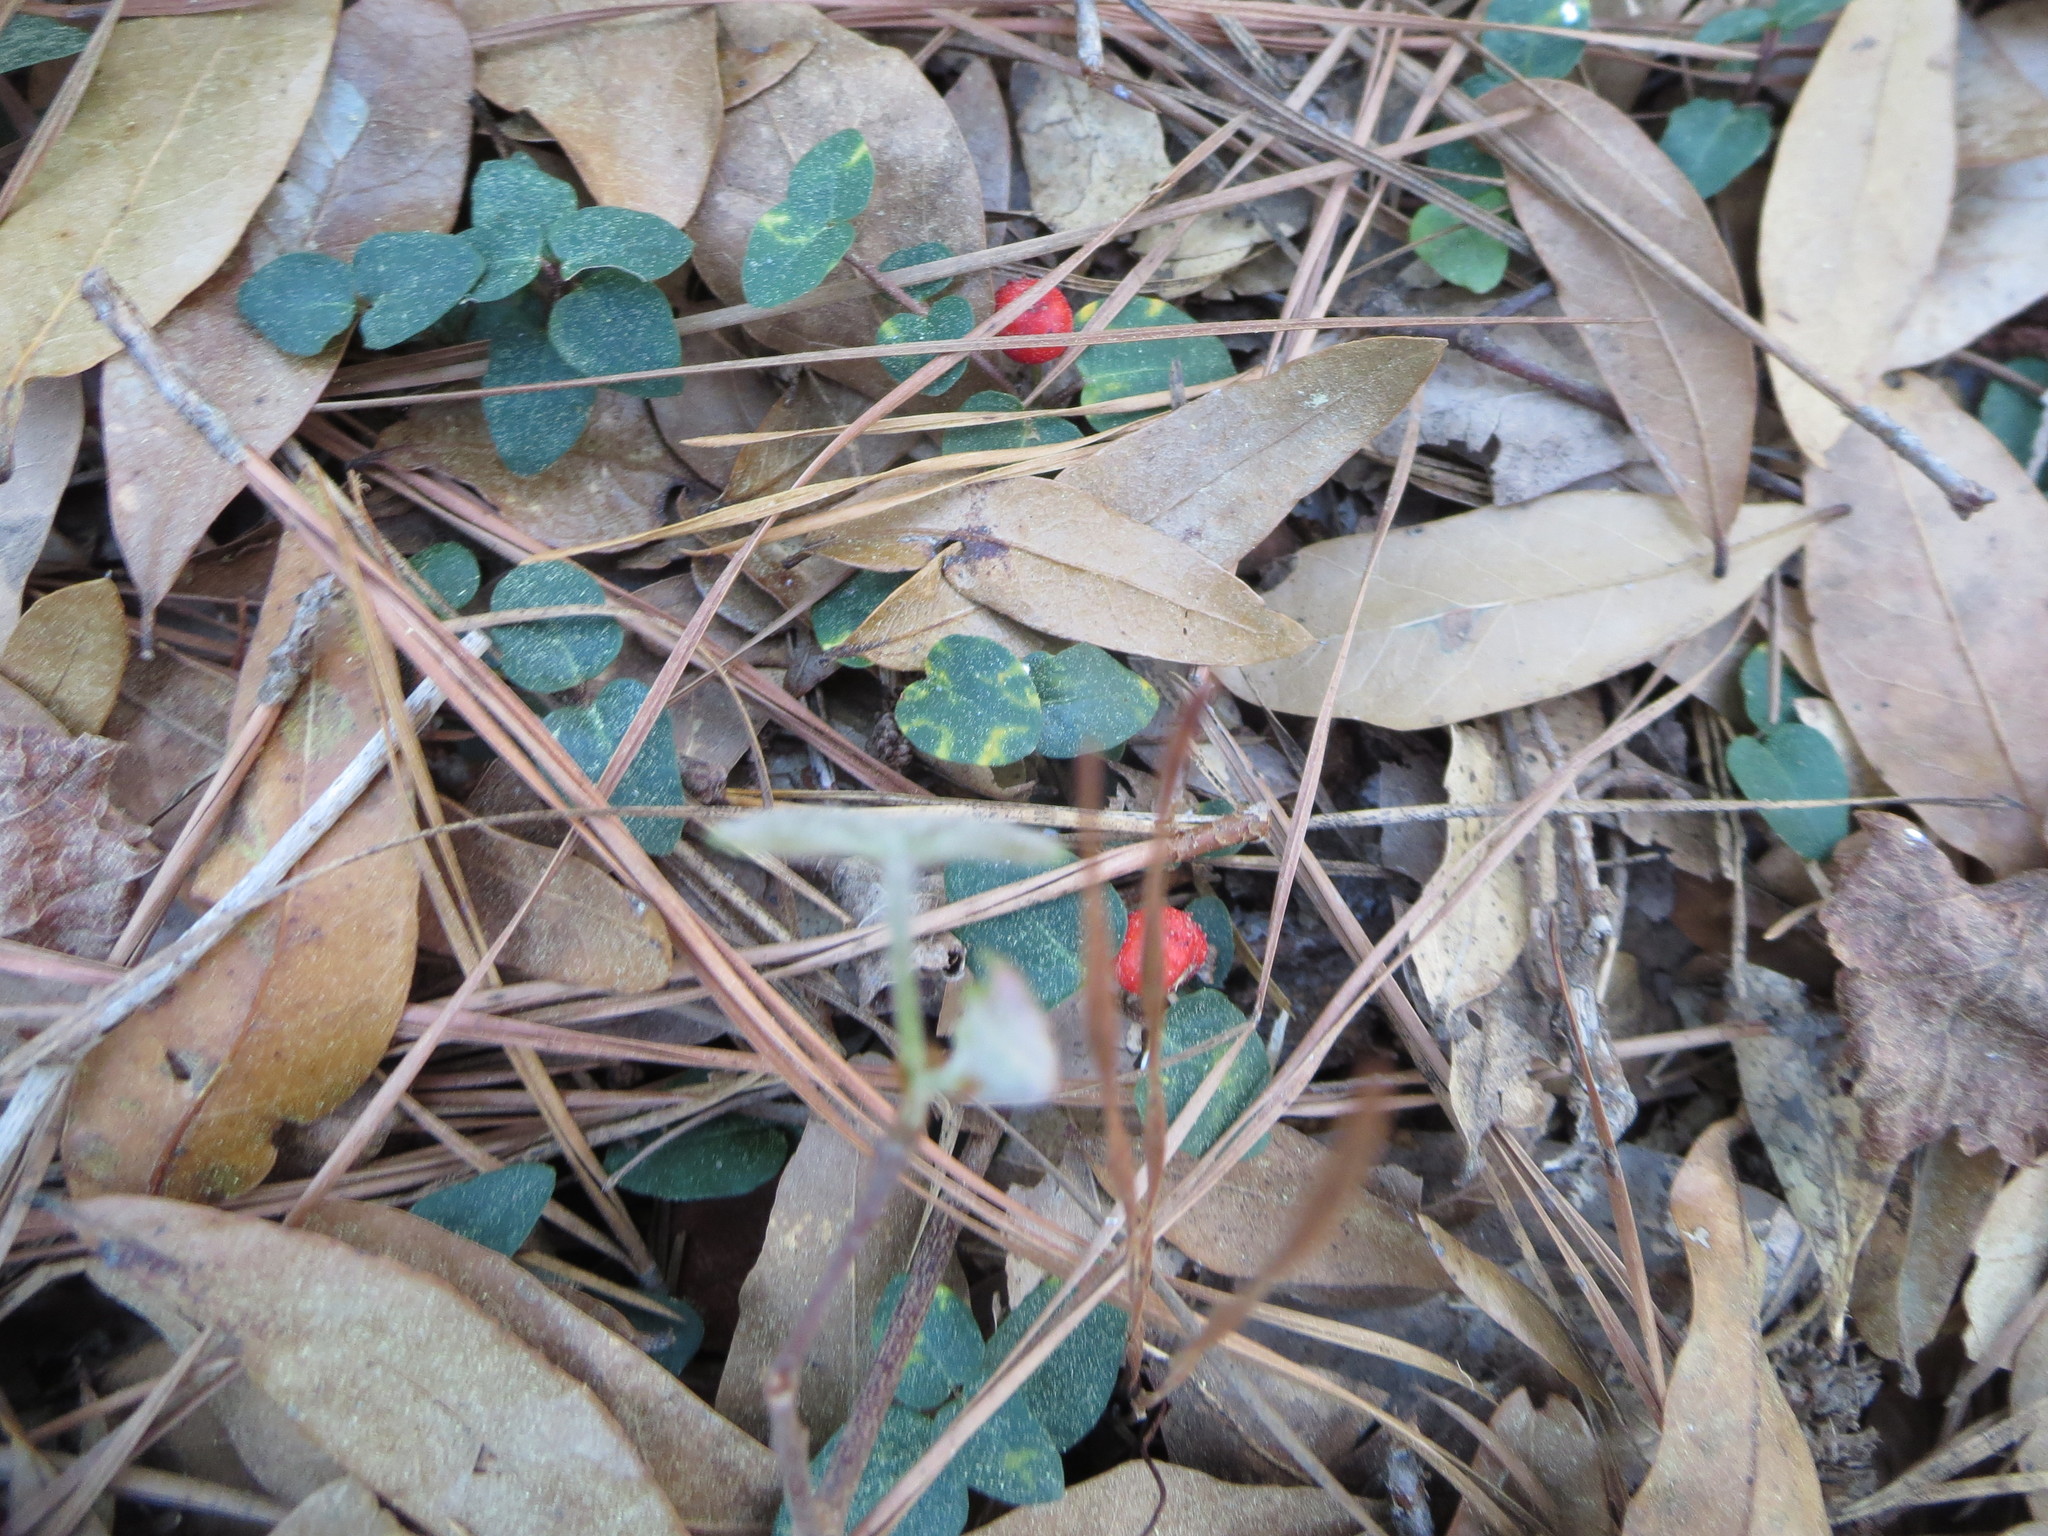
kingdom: Plantae
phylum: Tracheophyta
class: Magnoliopsida
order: Gentianales
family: Rubiaceae
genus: Mitchella
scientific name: Mitchella repens
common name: Partridge-berry
